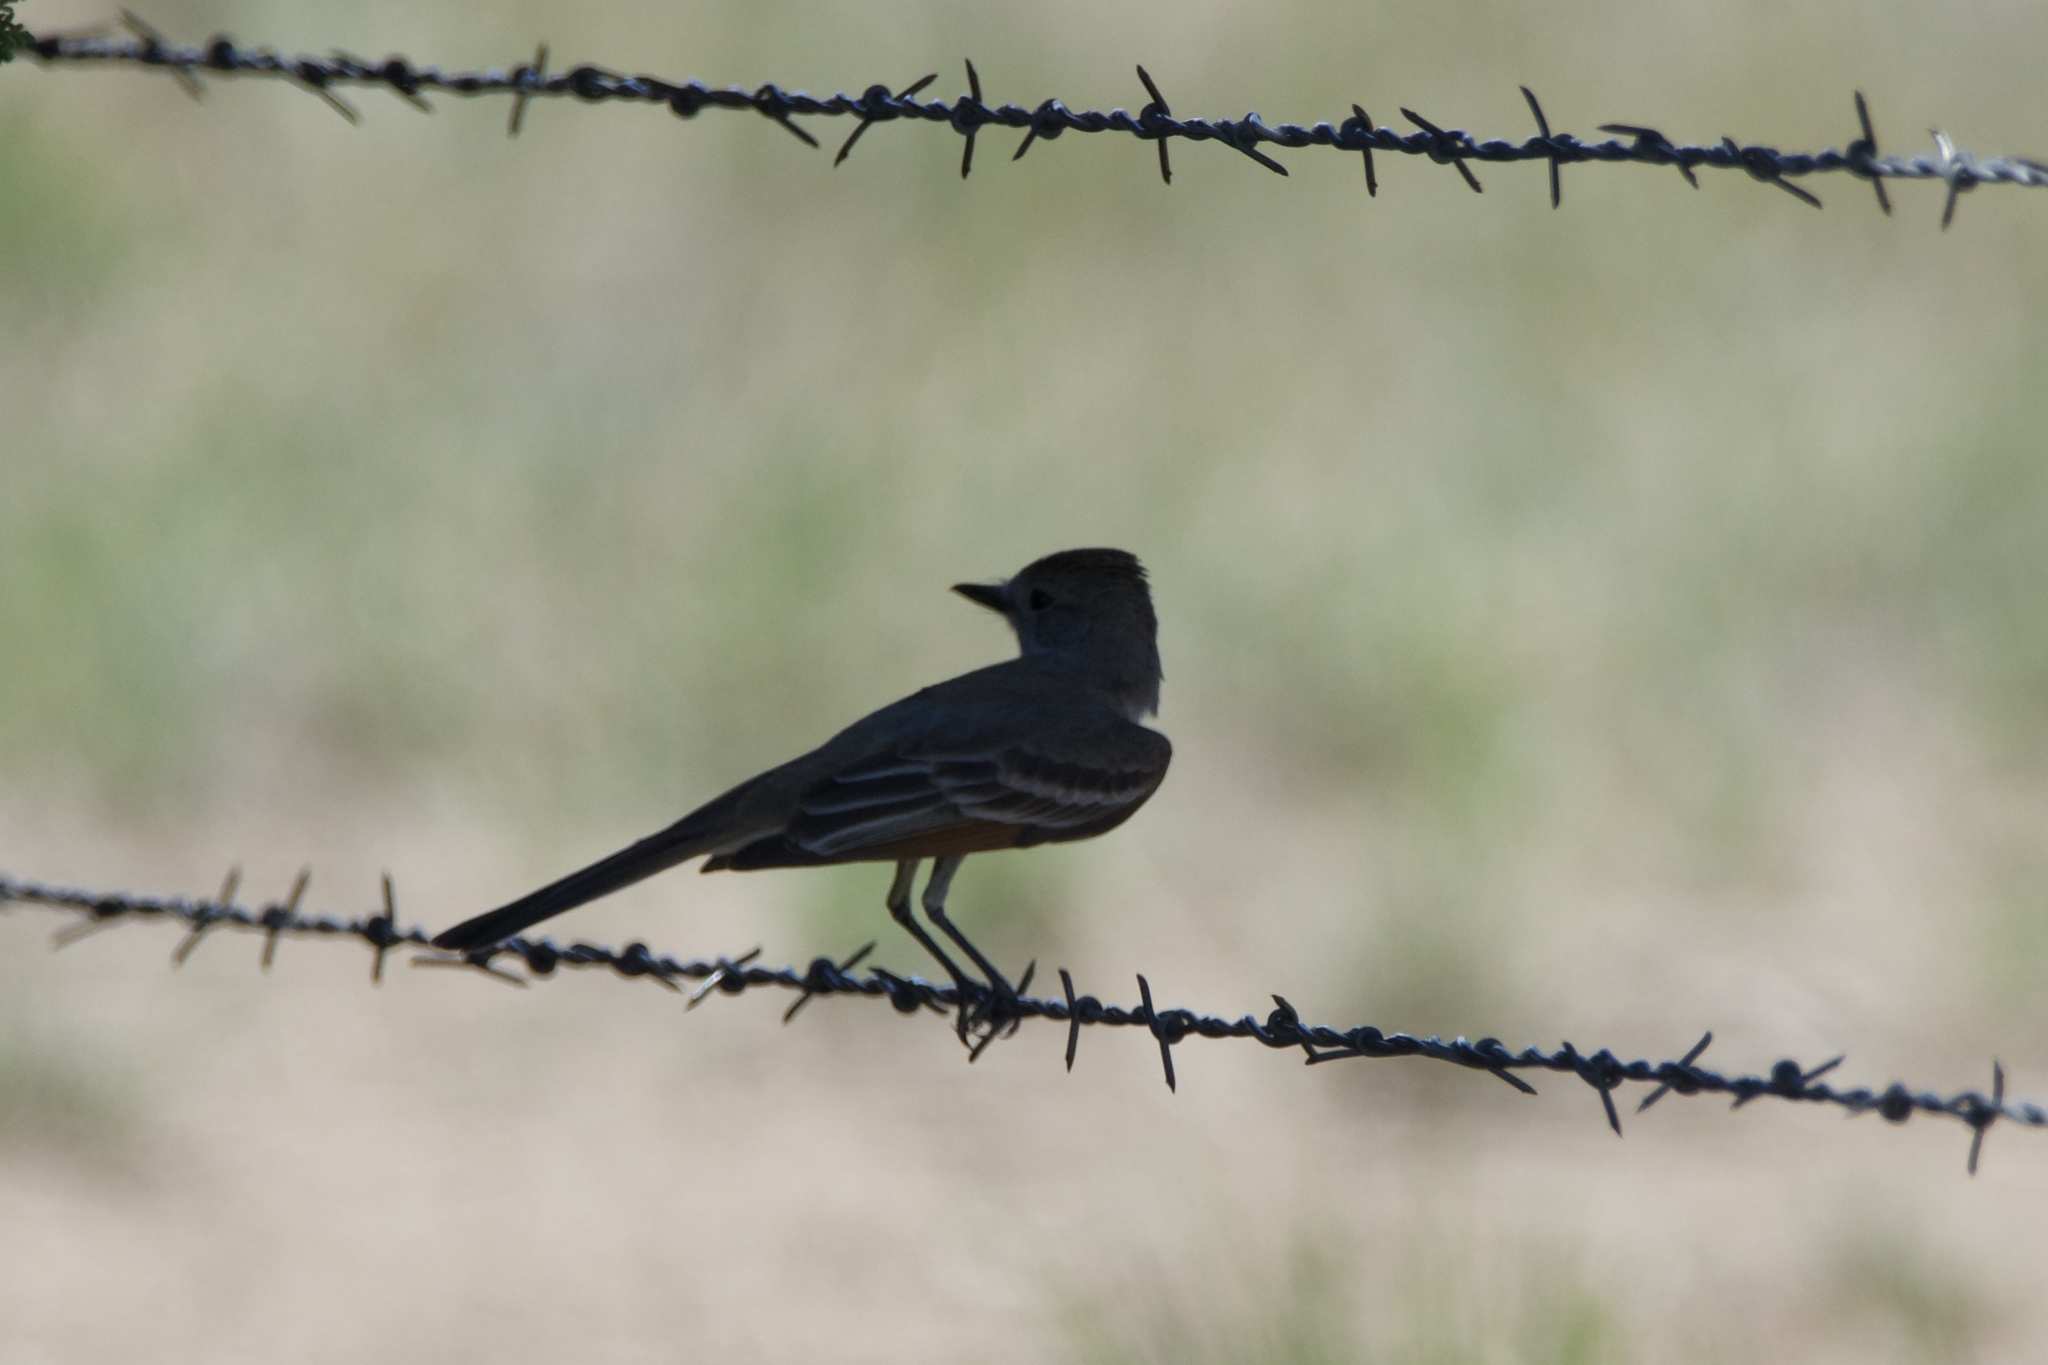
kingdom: Animalia
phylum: Chordata
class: Aves
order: Passeriformes
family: Tyrannidae
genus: Myiarchus
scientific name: Myiarchus cinerascens
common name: Ash-throated flycatcher
